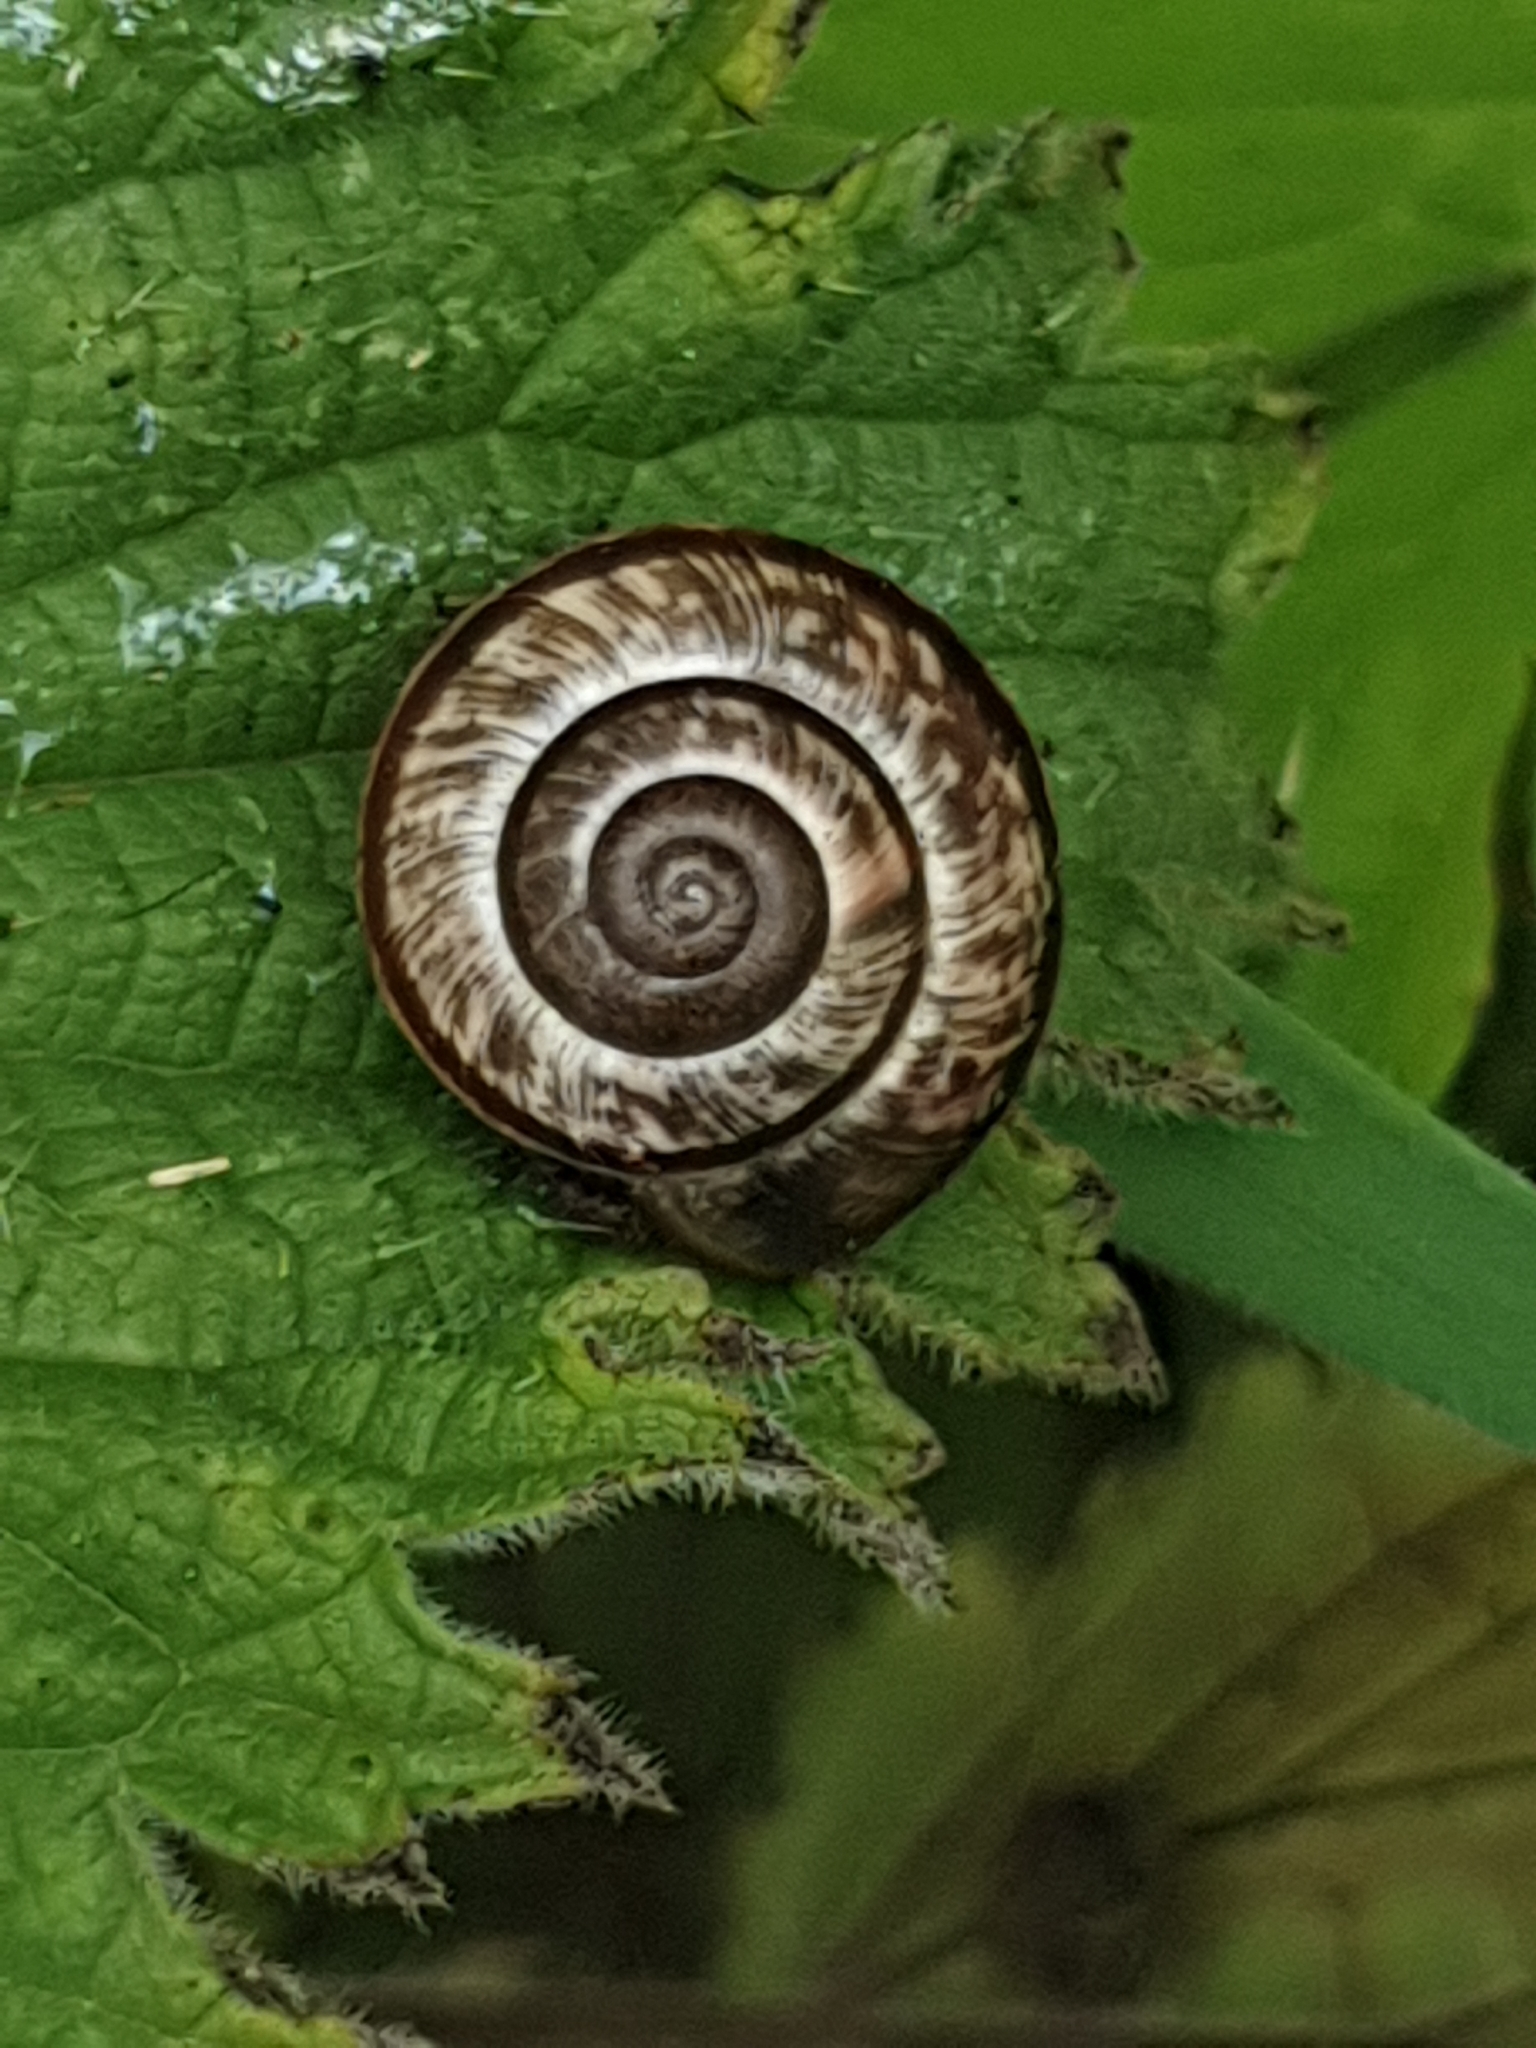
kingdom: Animalia
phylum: Mollusca
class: Gastropoda
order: Stylommatophora
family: Helicidae
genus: Arianta
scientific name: Arianta arbustorum
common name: Copse snail
